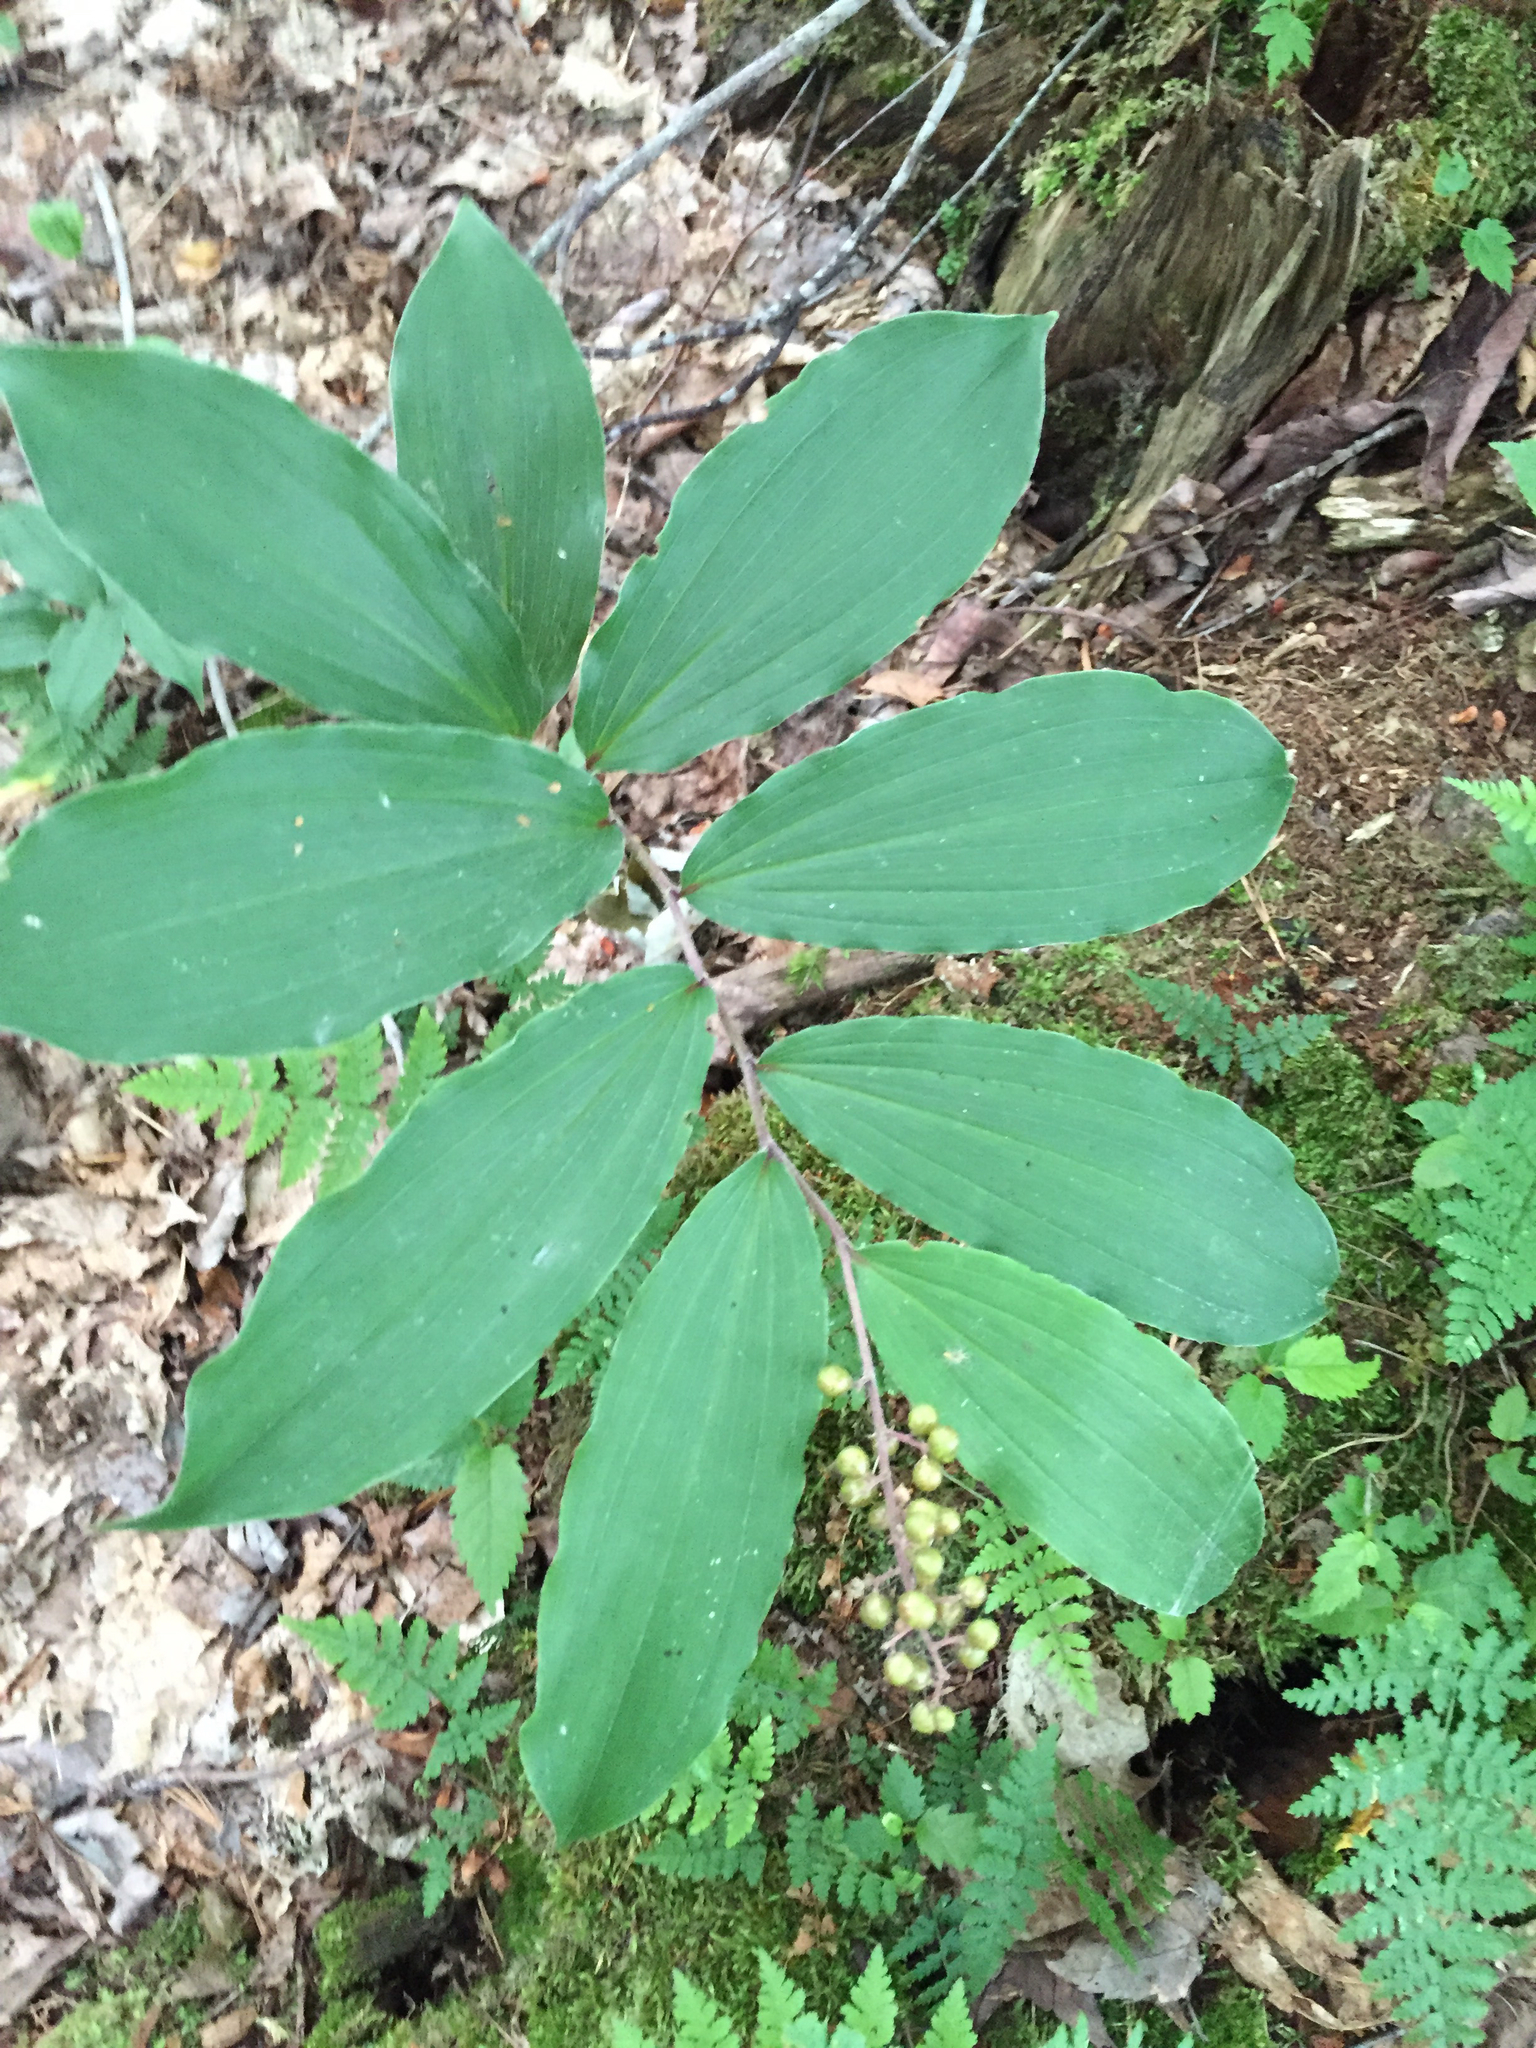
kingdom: Plantae
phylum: Tracheophyta
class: Liliopsida
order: Asparagales
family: Asparagaceae
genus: Maianthemum
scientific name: Maianthemum racemosum
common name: False spikenard
